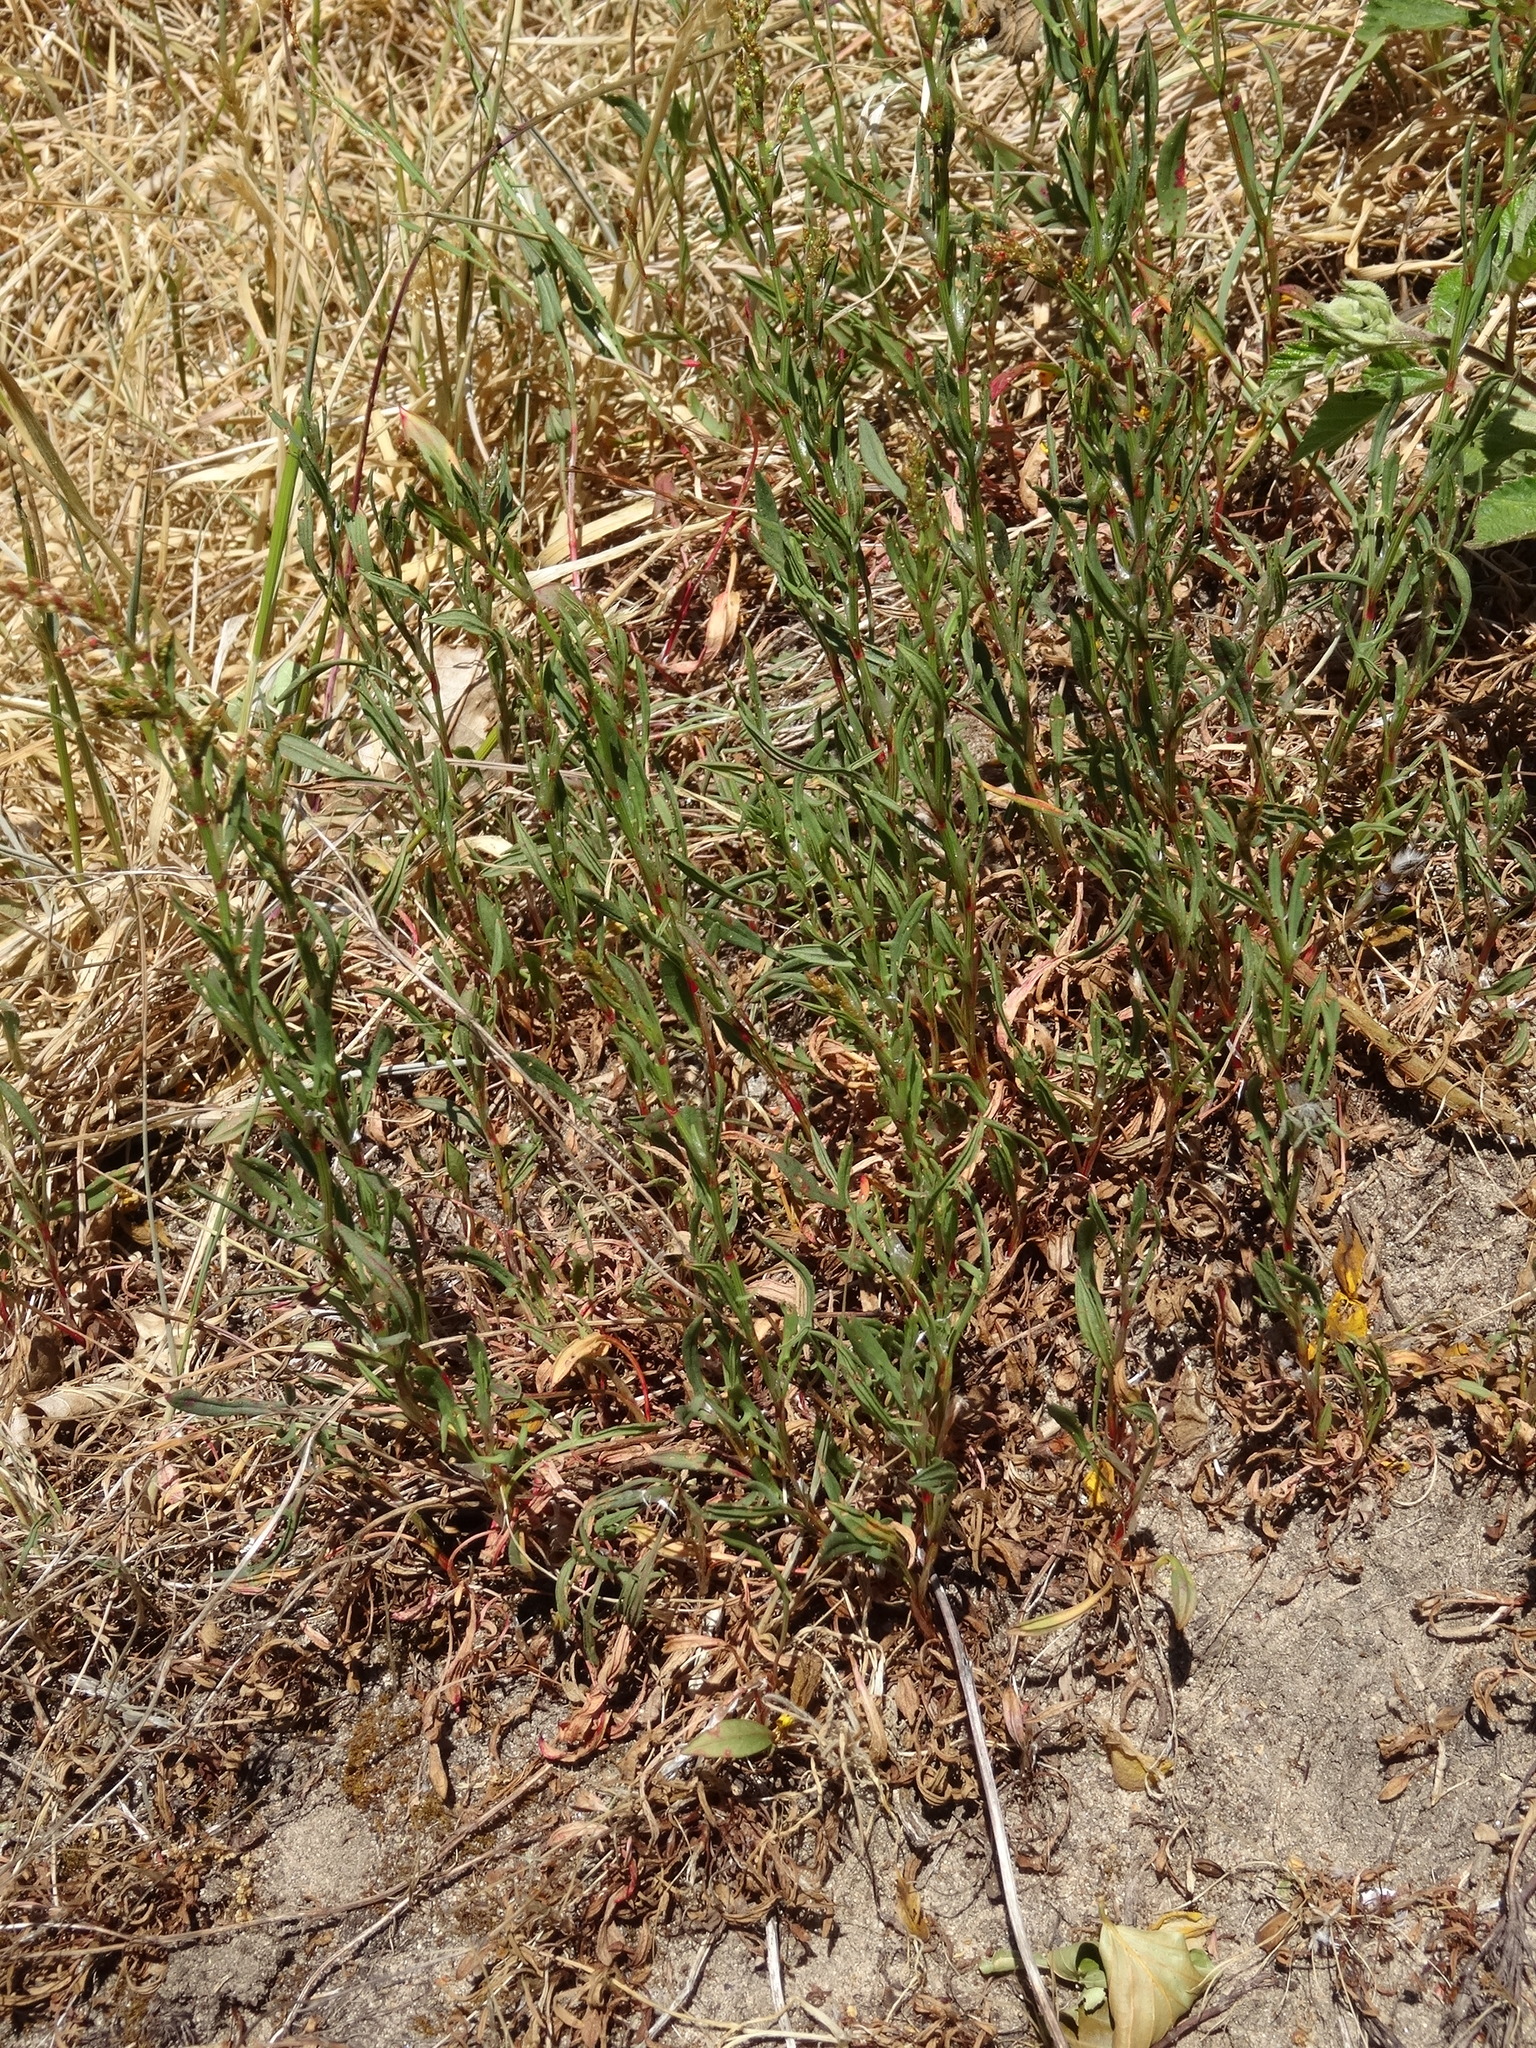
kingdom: Plantae
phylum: Tracheophyta
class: Magnoliopsida
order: Caryophyllales
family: Polygonaceae
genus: Rumex
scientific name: Rumex acetosella
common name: Common sheep sorrel
